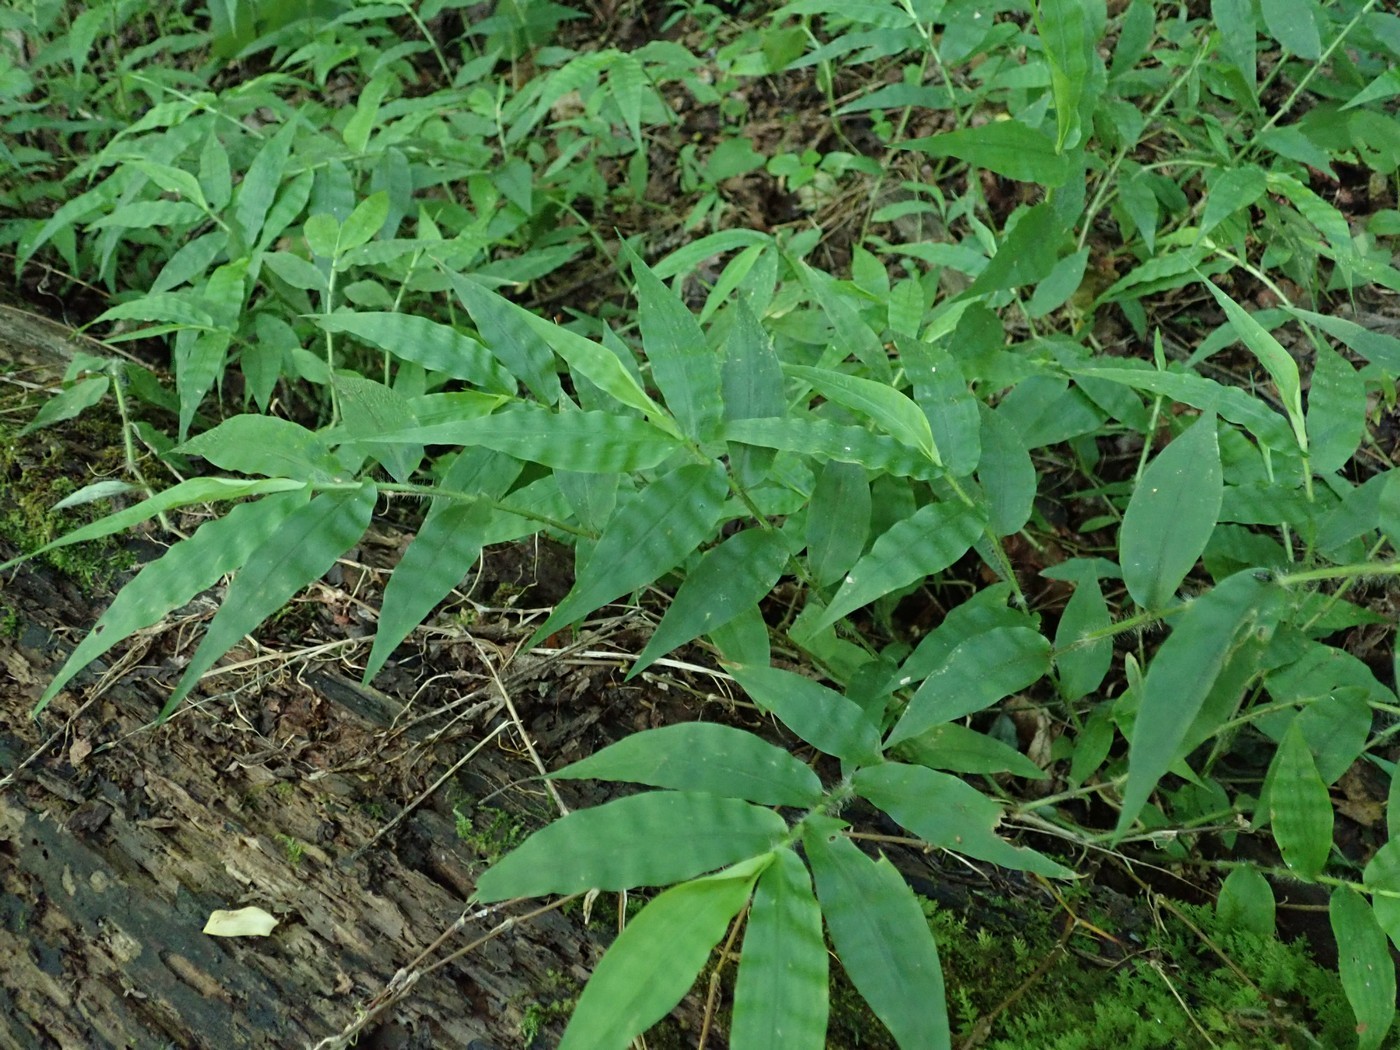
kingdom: Plantae
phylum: Tracheophyta
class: Liliopsida
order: Poales
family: Poaceae
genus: Oplismenus
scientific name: Oplismenus undulatifolius
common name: Wavyleaf basketgrass
